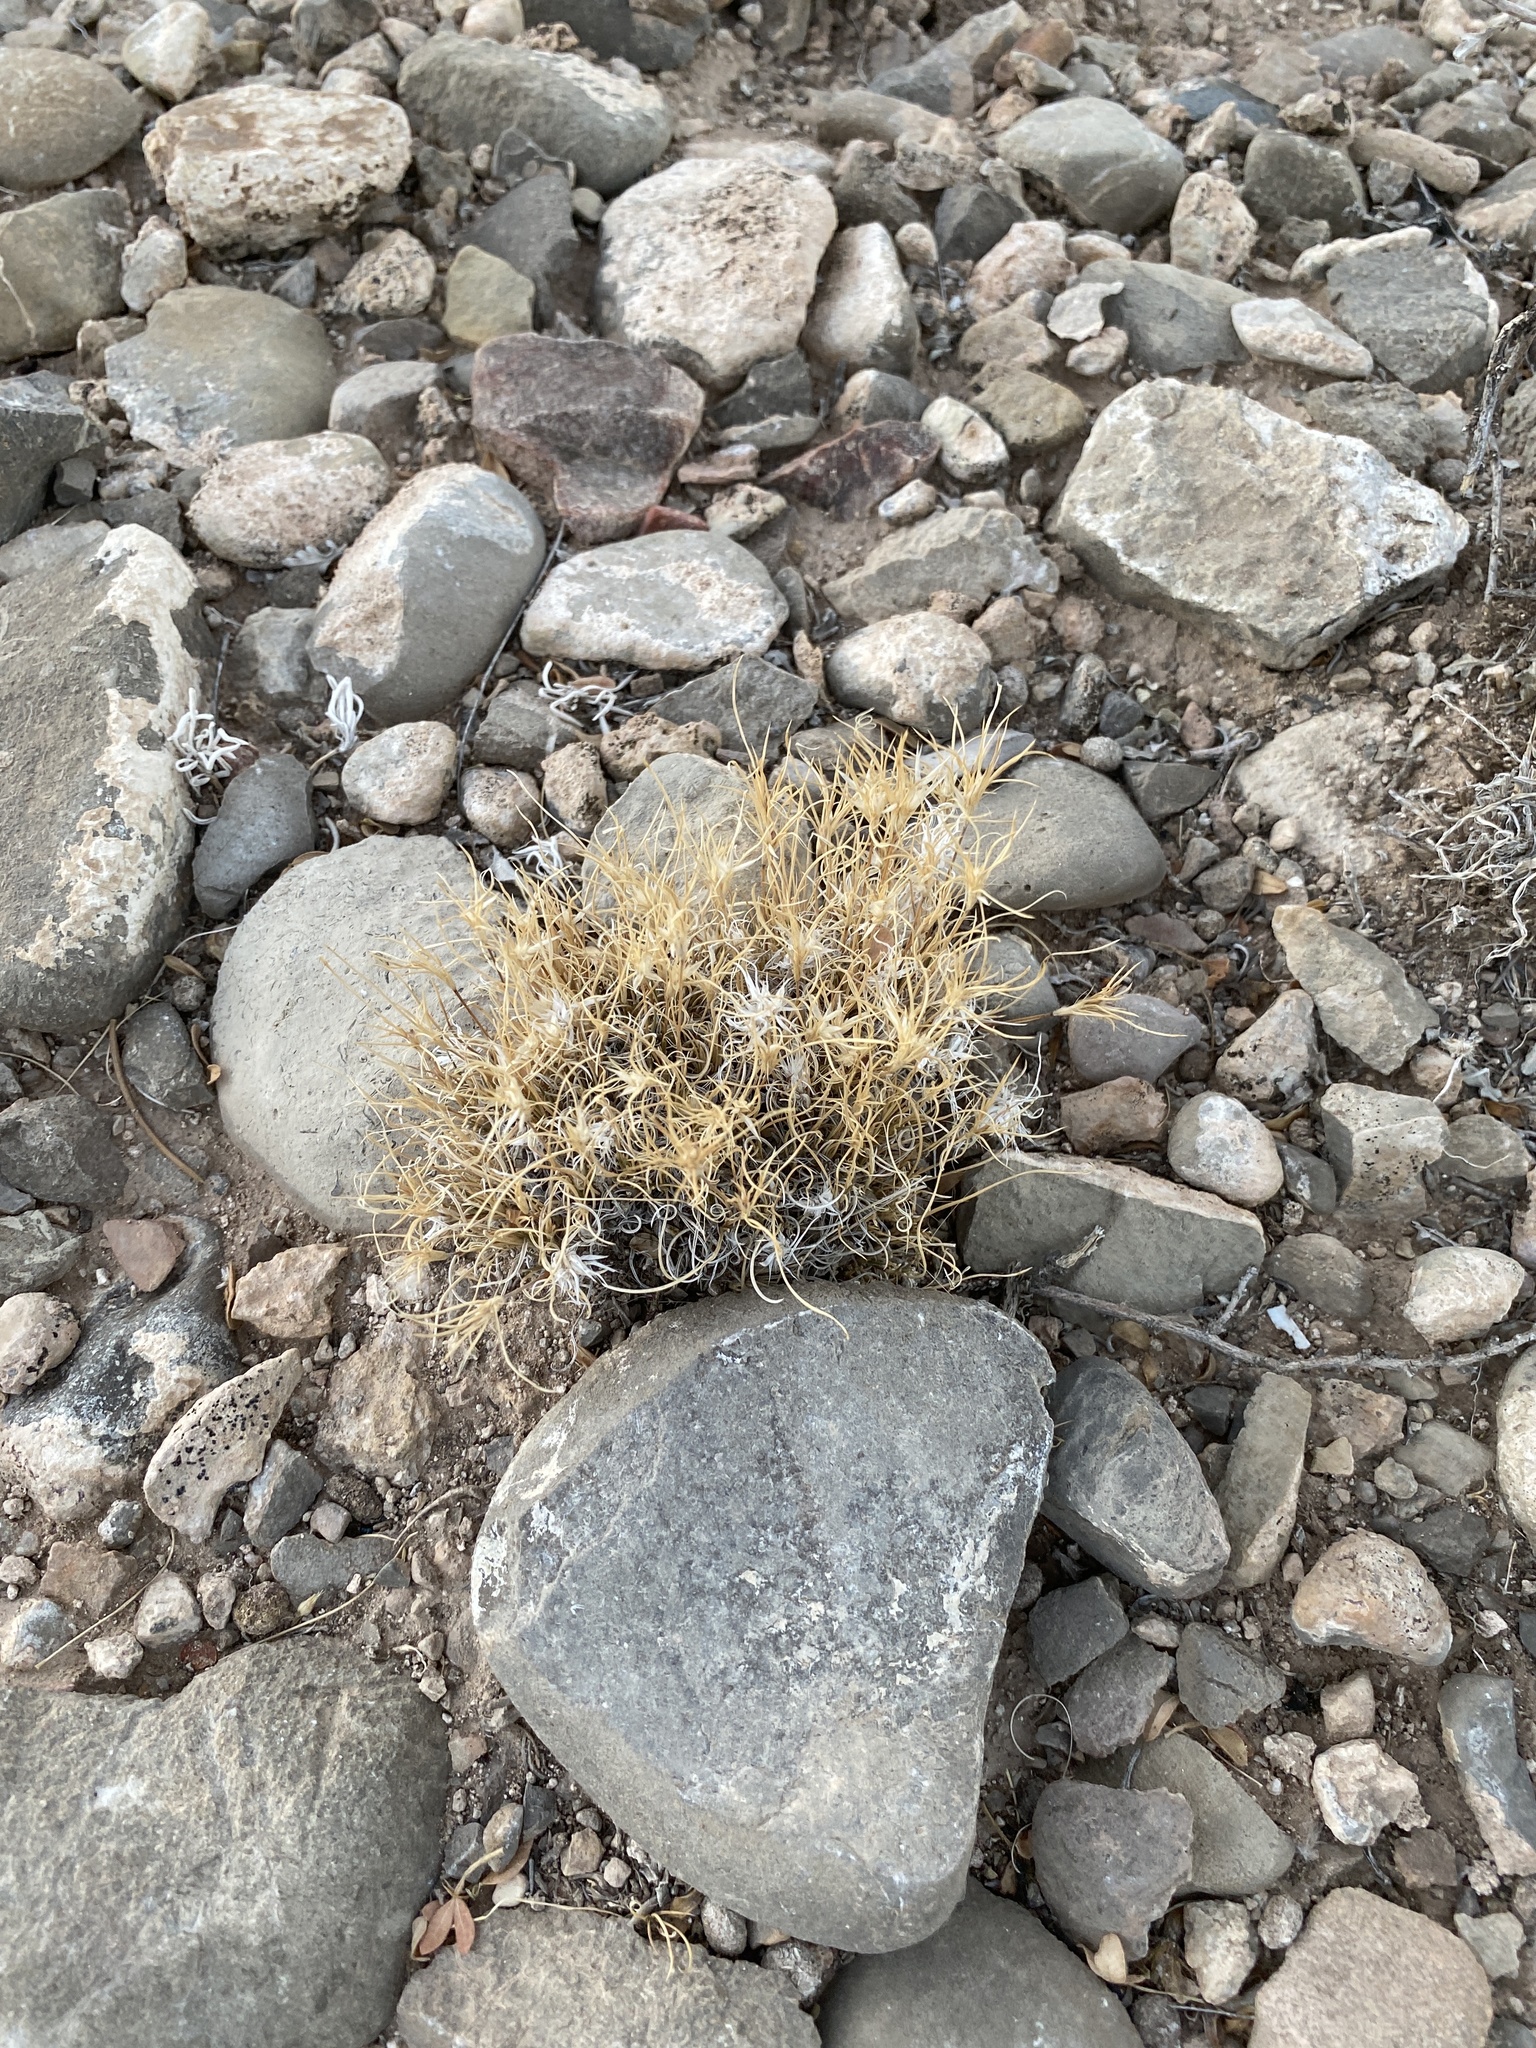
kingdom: Plantae
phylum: Tracheophyta
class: Liliopsida
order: Poales
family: Poaceae
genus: Dasyochloa
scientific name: Dasyochloa pulchella
